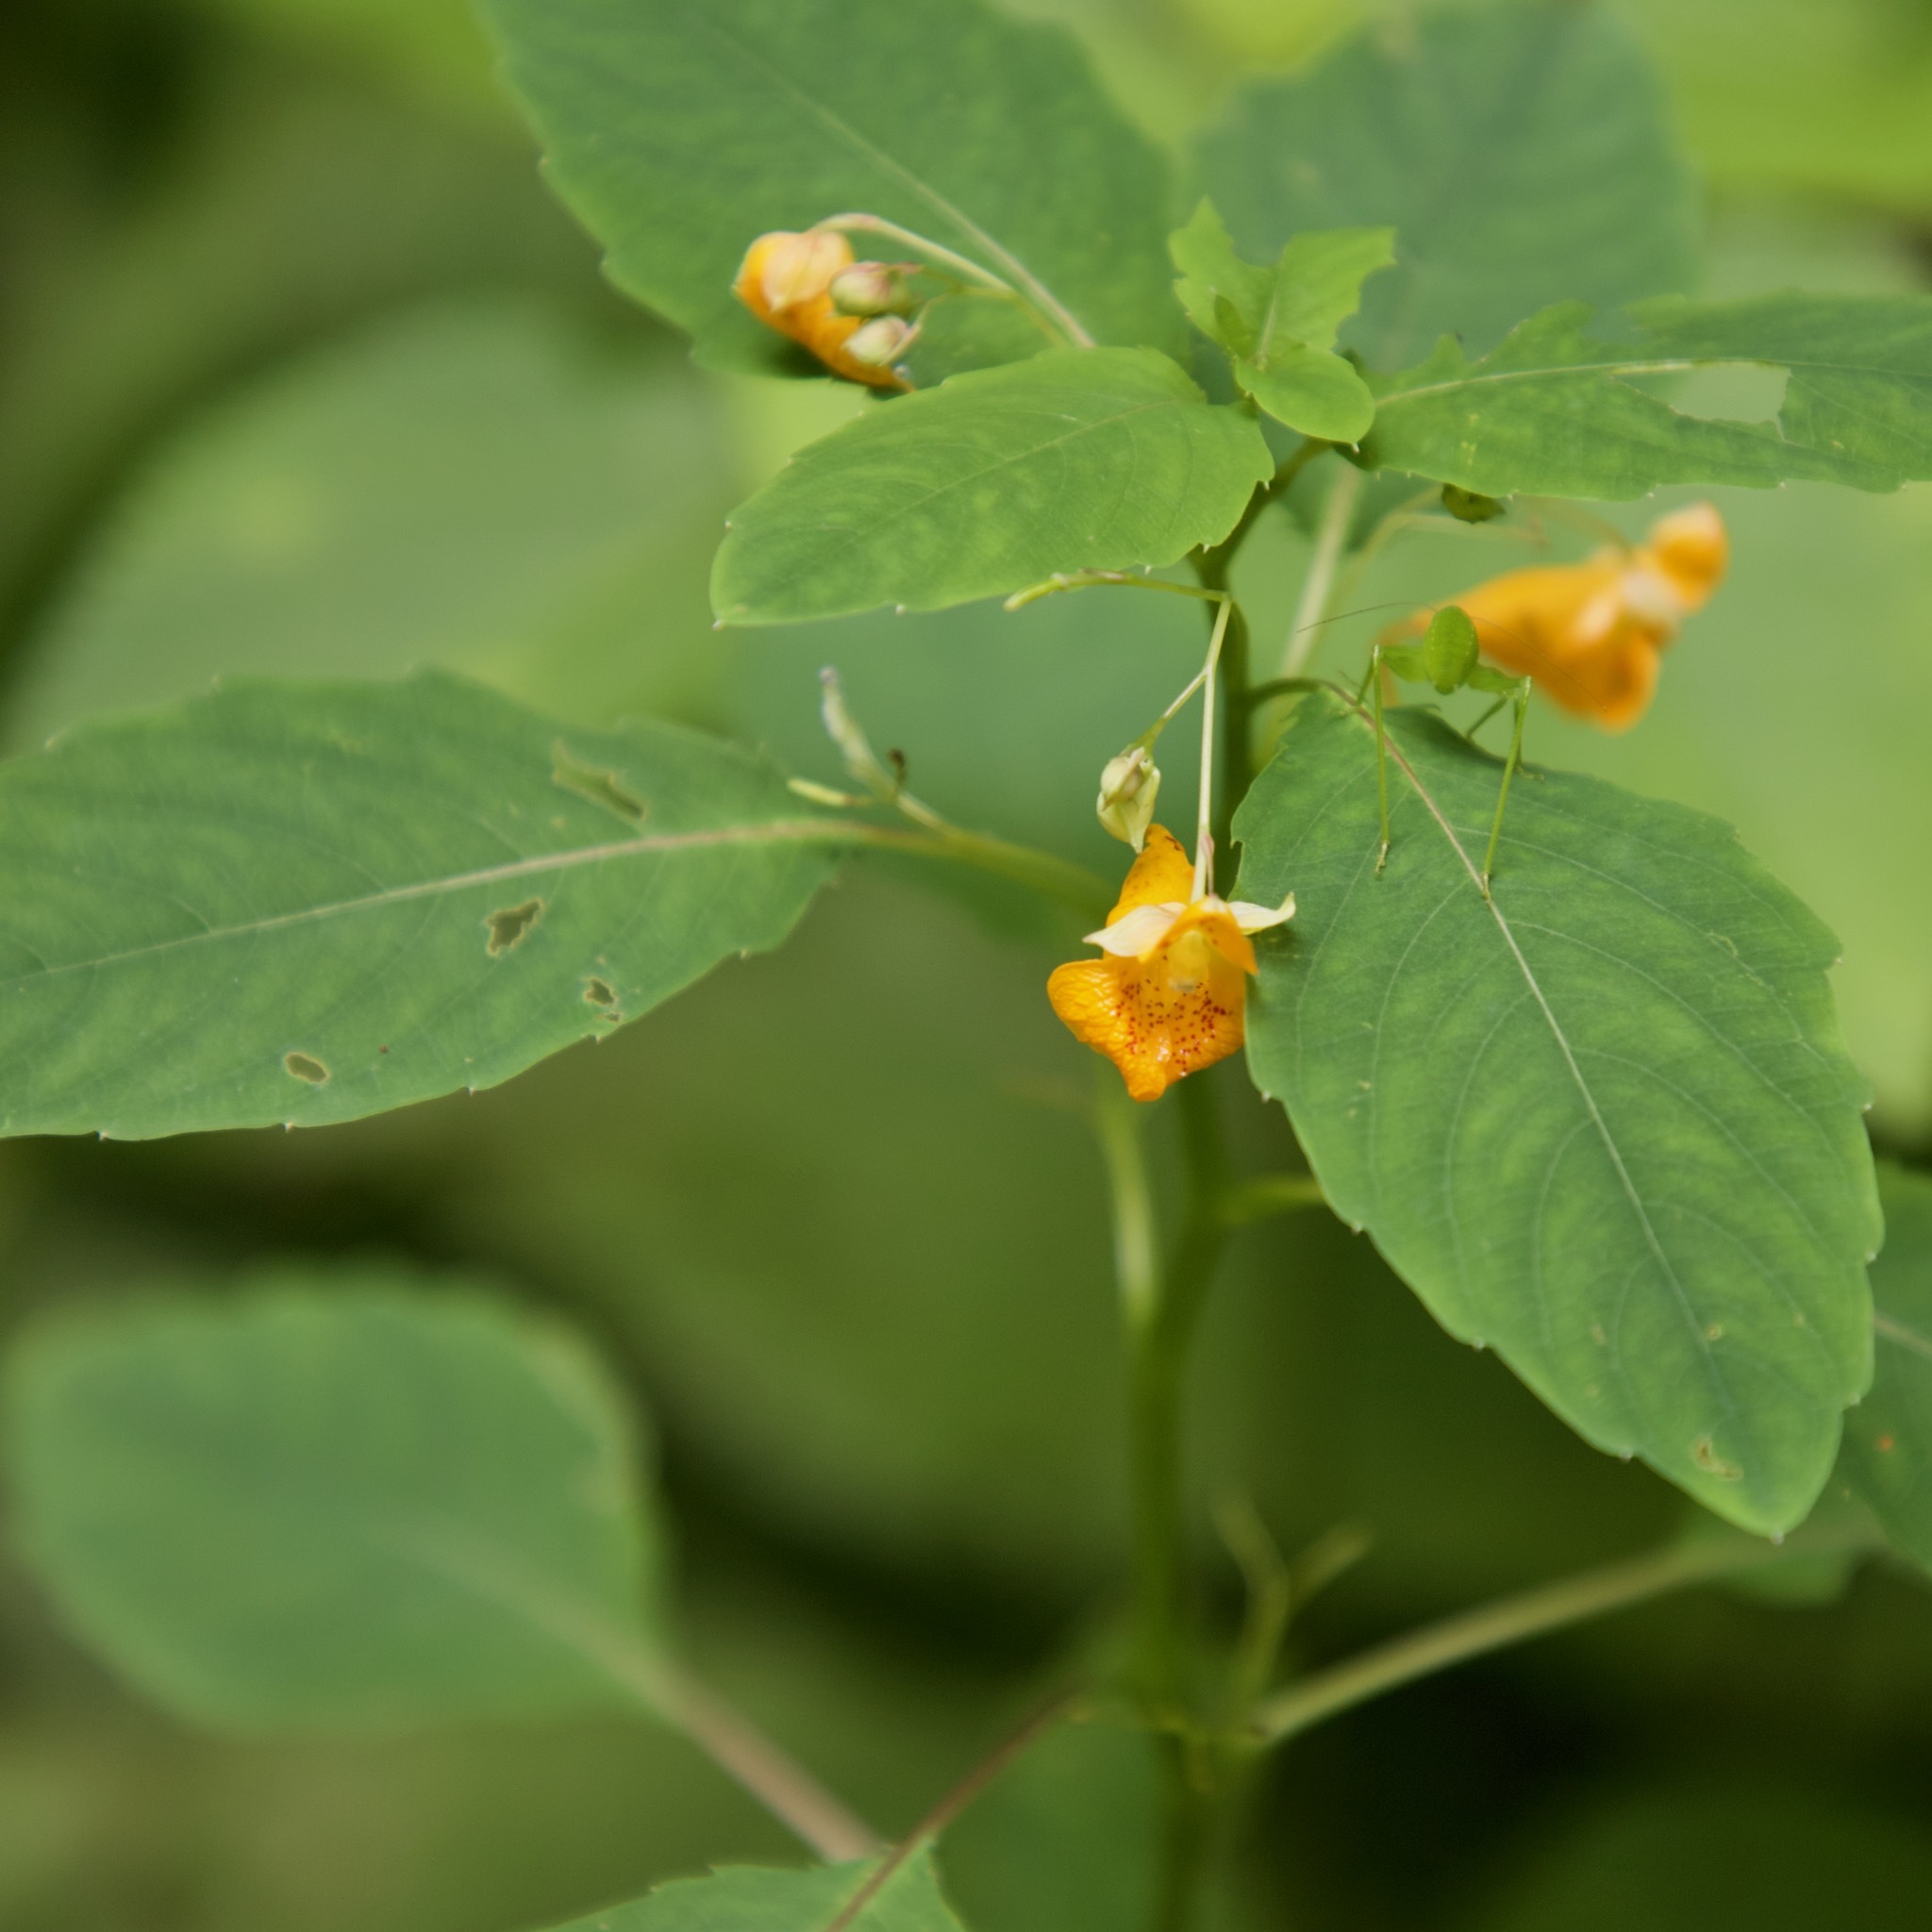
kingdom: Plantae
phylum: Tracheophyta
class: Magnoliopsida
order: Ericales
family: Balsaminaceae
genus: Impatiens
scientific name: Impatiens capensis
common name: Orange balsam
